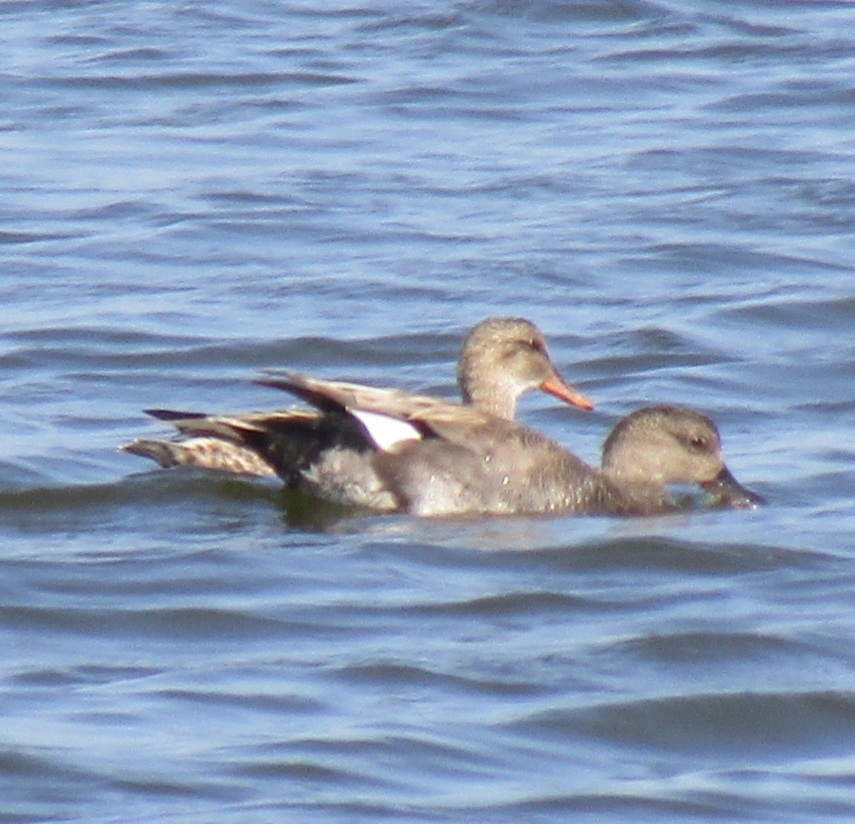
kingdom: Animalia
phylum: Chordata
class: Aves
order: Anseriformes
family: Anatidae
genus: Mareca
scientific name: Mareca strepera
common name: Gadwall
